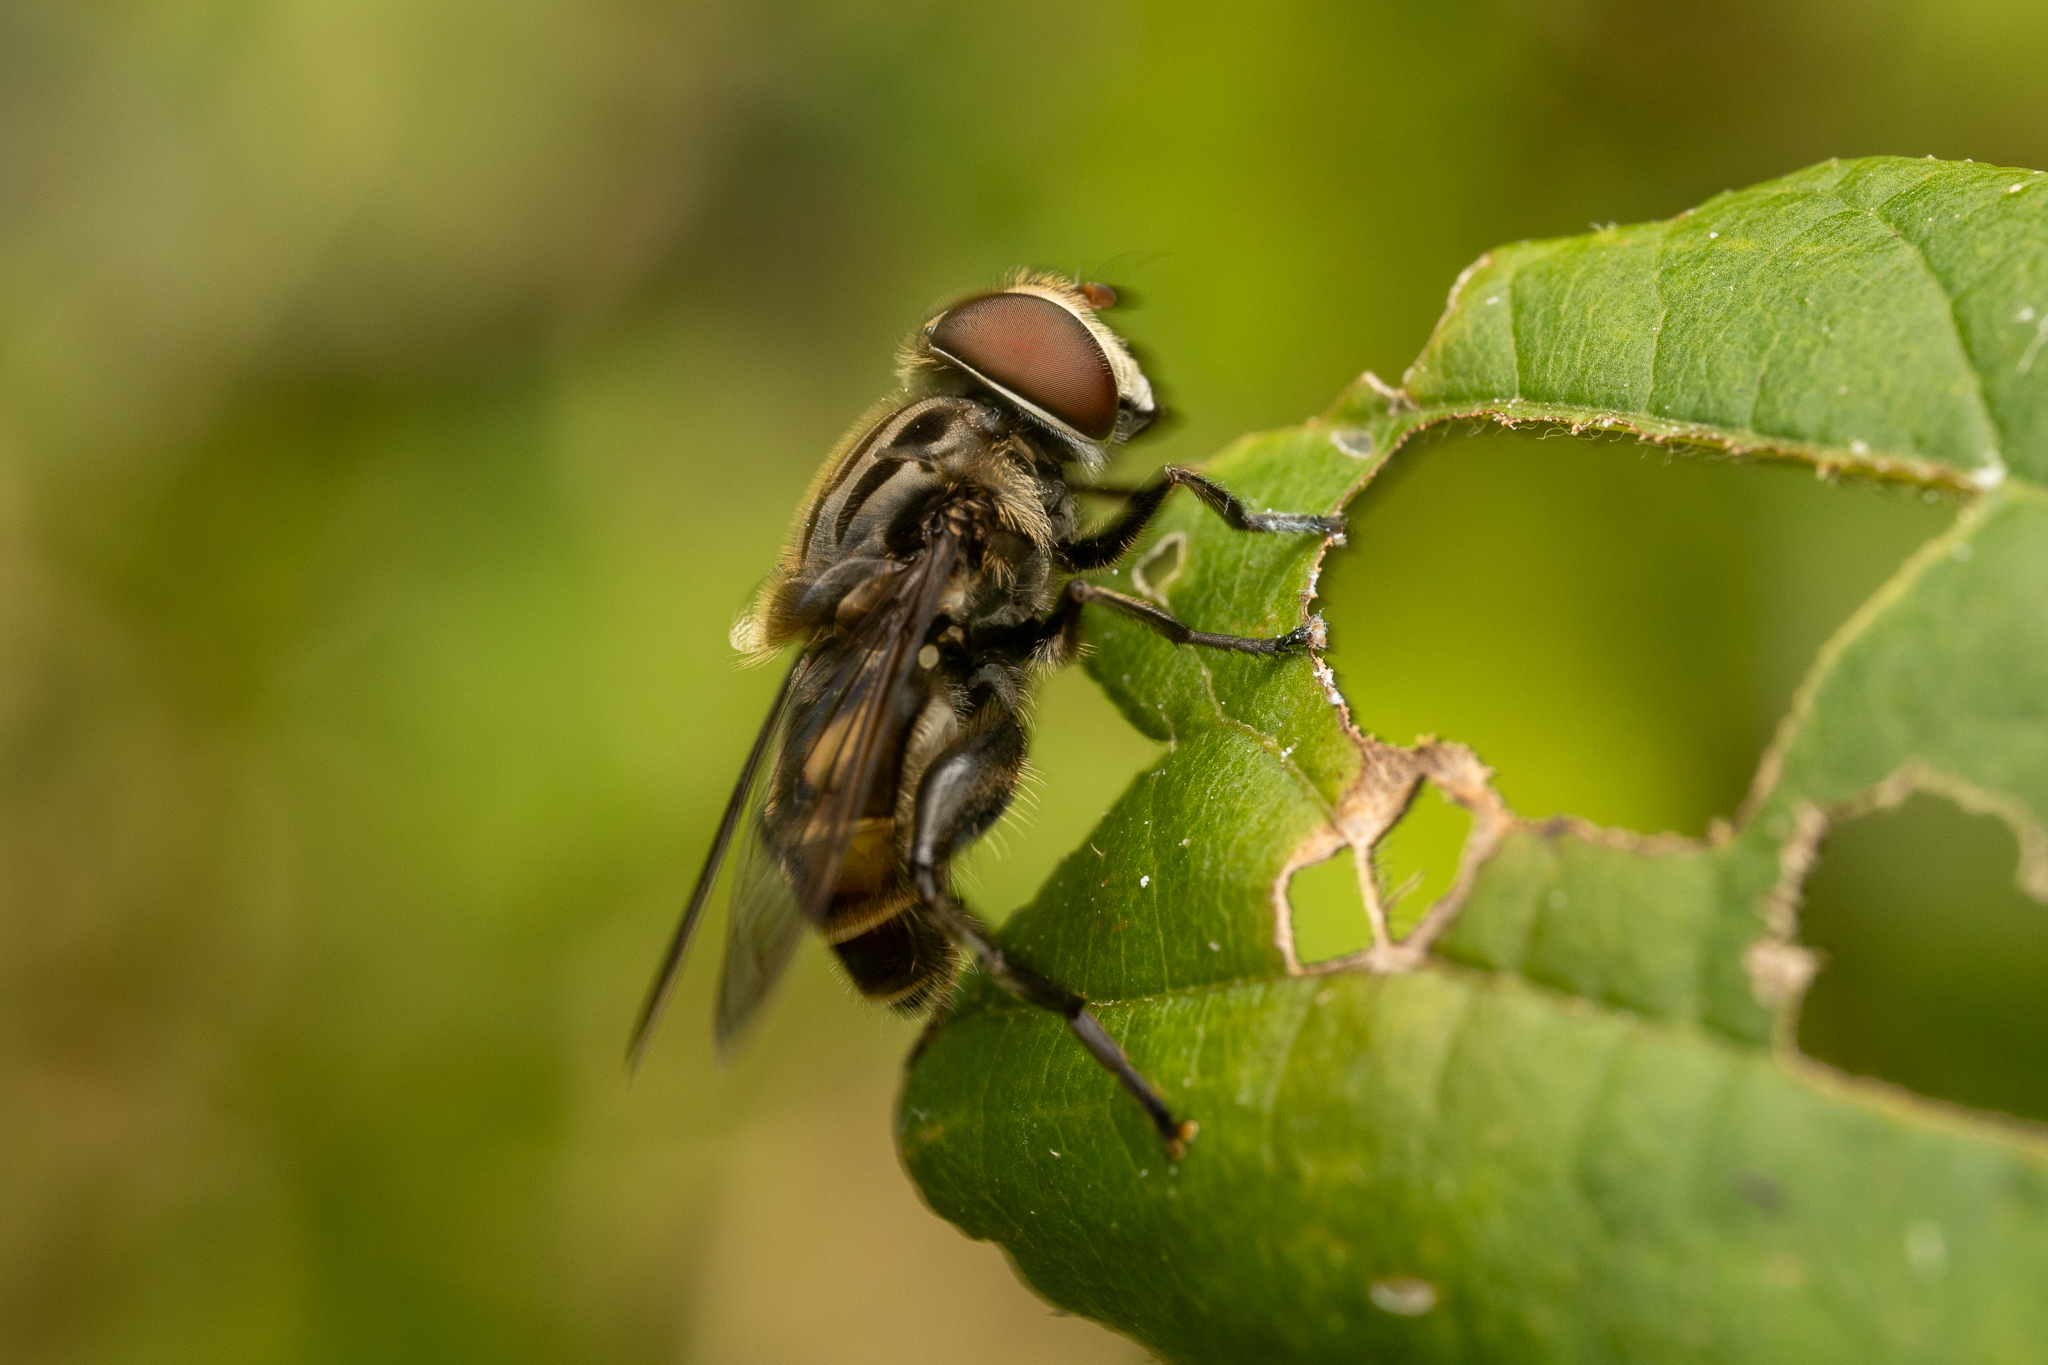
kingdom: Animalia
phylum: Arthropoda
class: Insecta
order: Diptera
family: Syrphidae
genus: Palpada
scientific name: Palpada furcata
